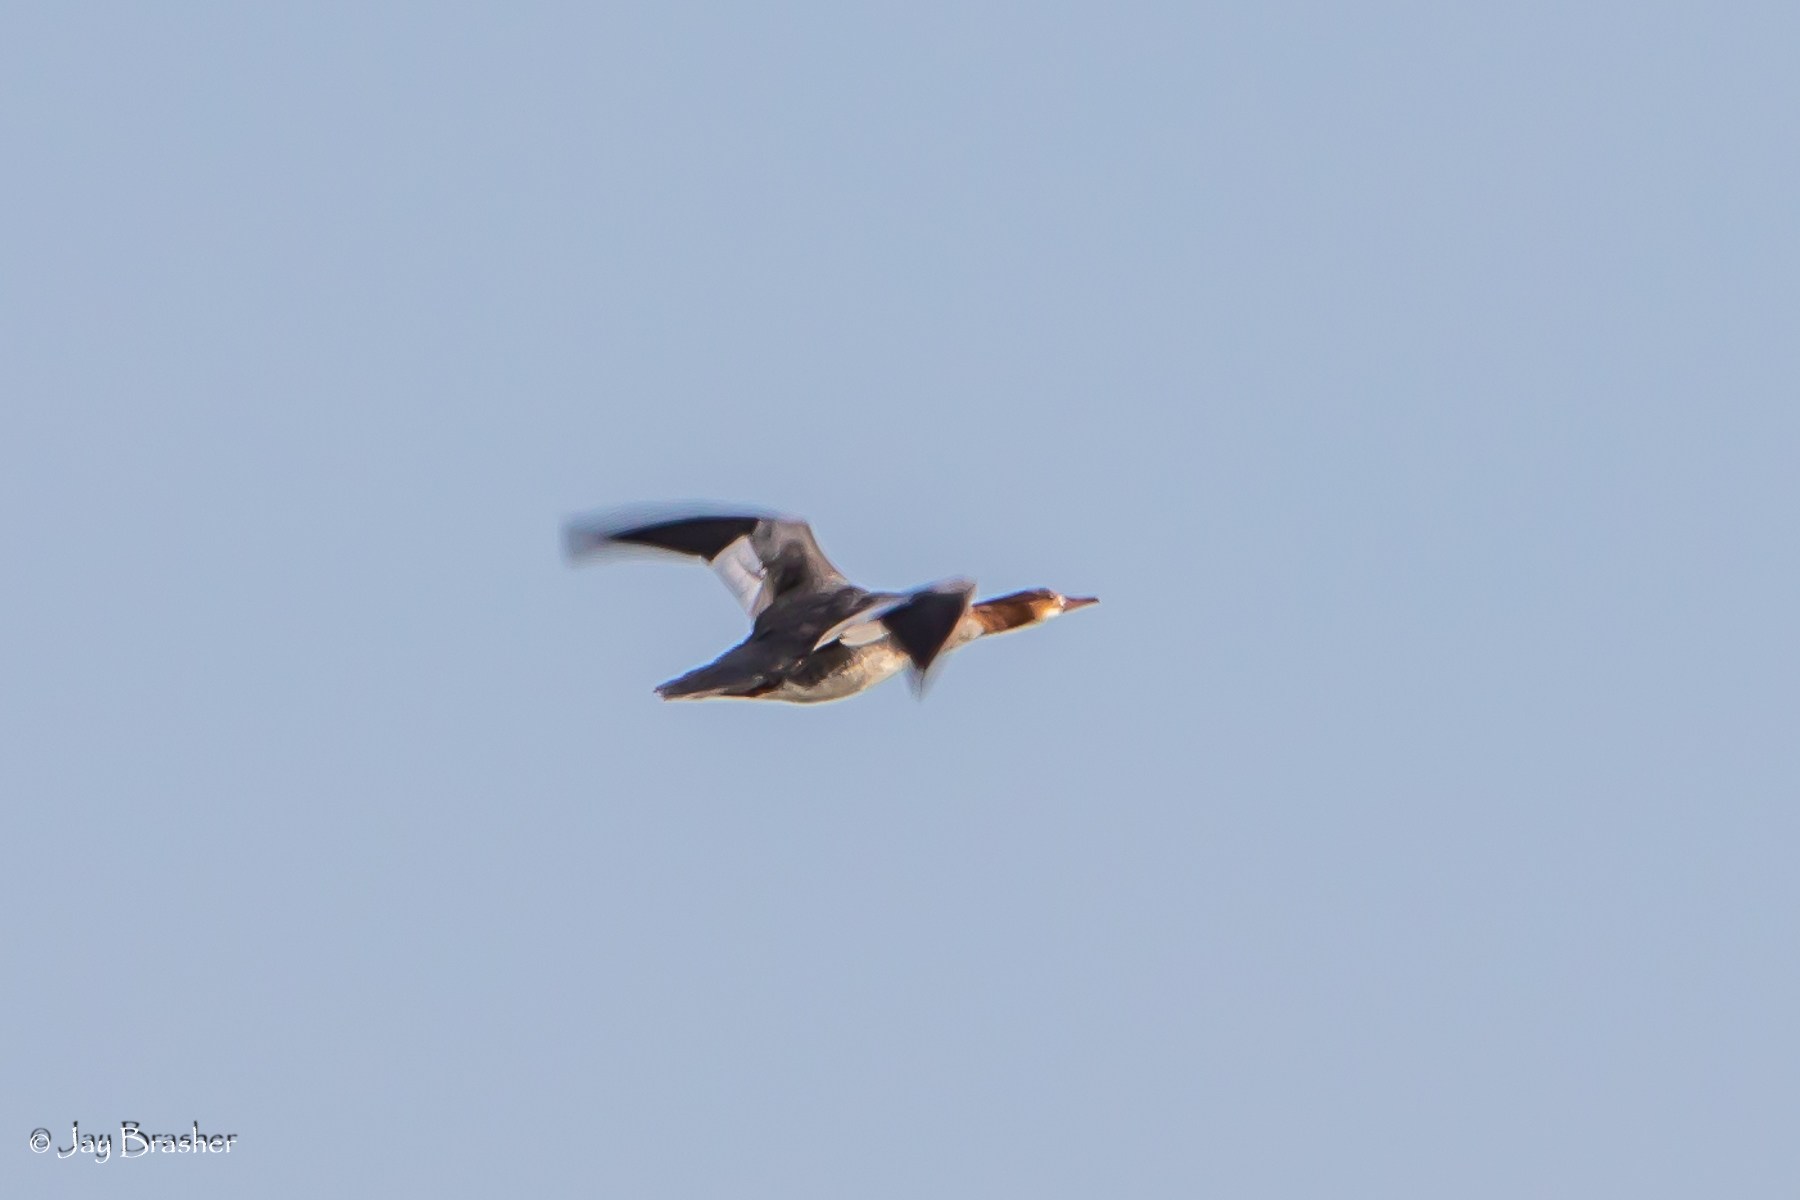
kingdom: Animalia
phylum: Chordata
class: Aves
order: Anseriformes
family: Anatidae
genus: Mergus
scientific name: Mergus merganser
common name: Common merganser
